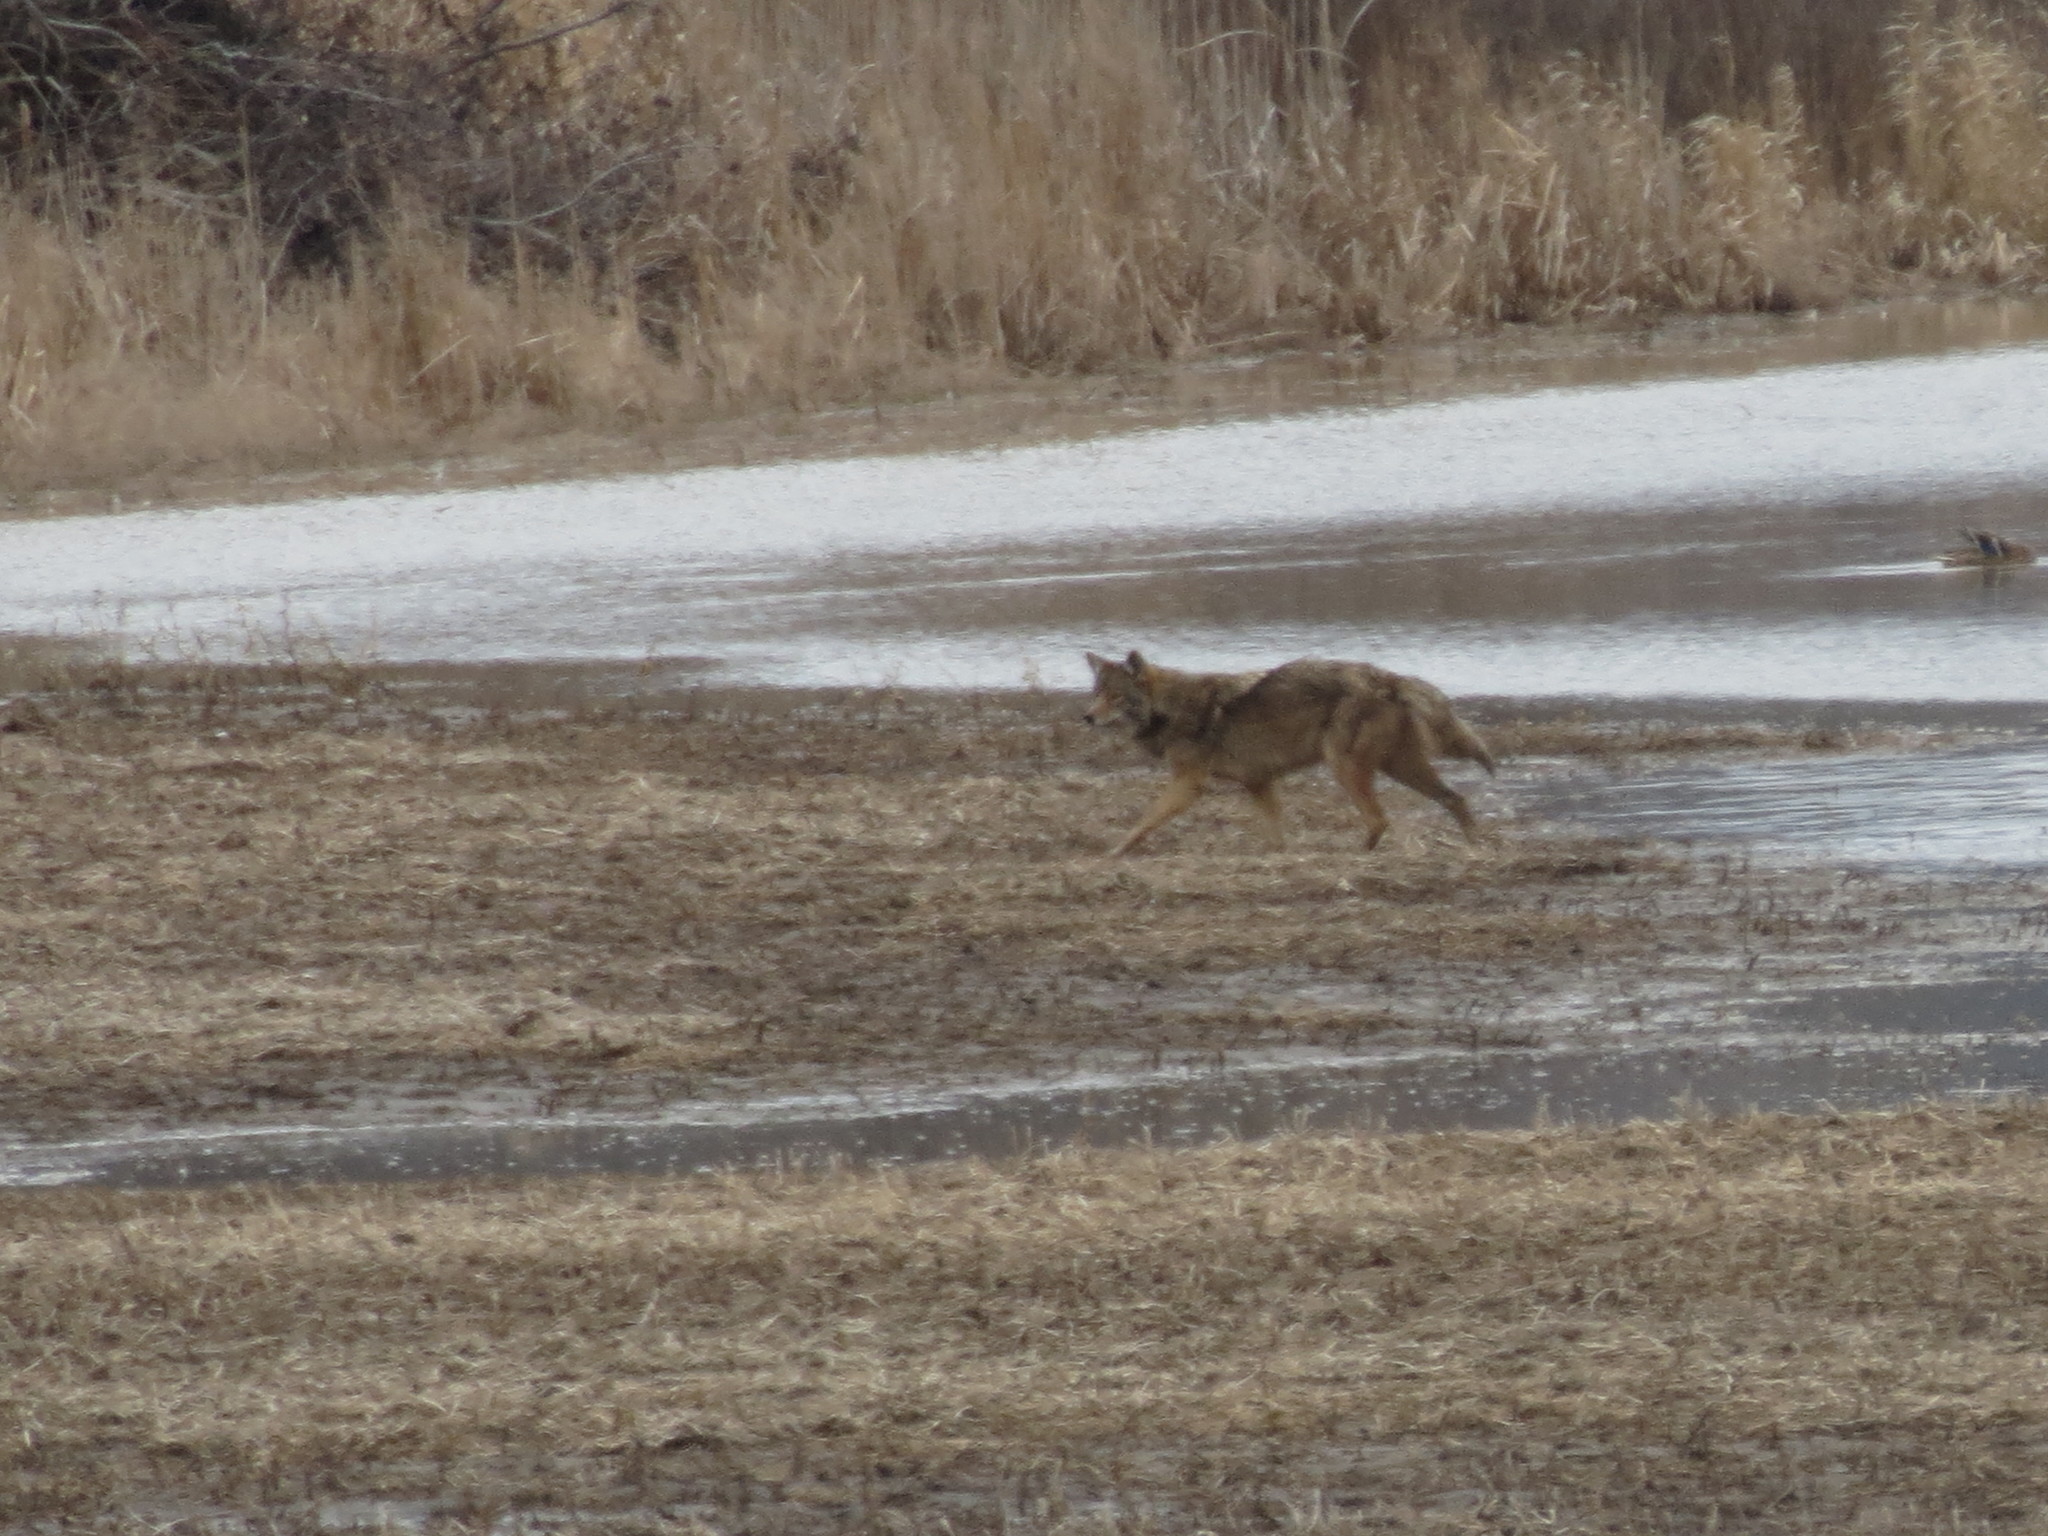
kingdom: Animalia
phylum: Chordata
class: Mammalia
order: Carnivora
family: Canidae
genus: Canis
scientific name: Canis latrans
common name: Coyote
